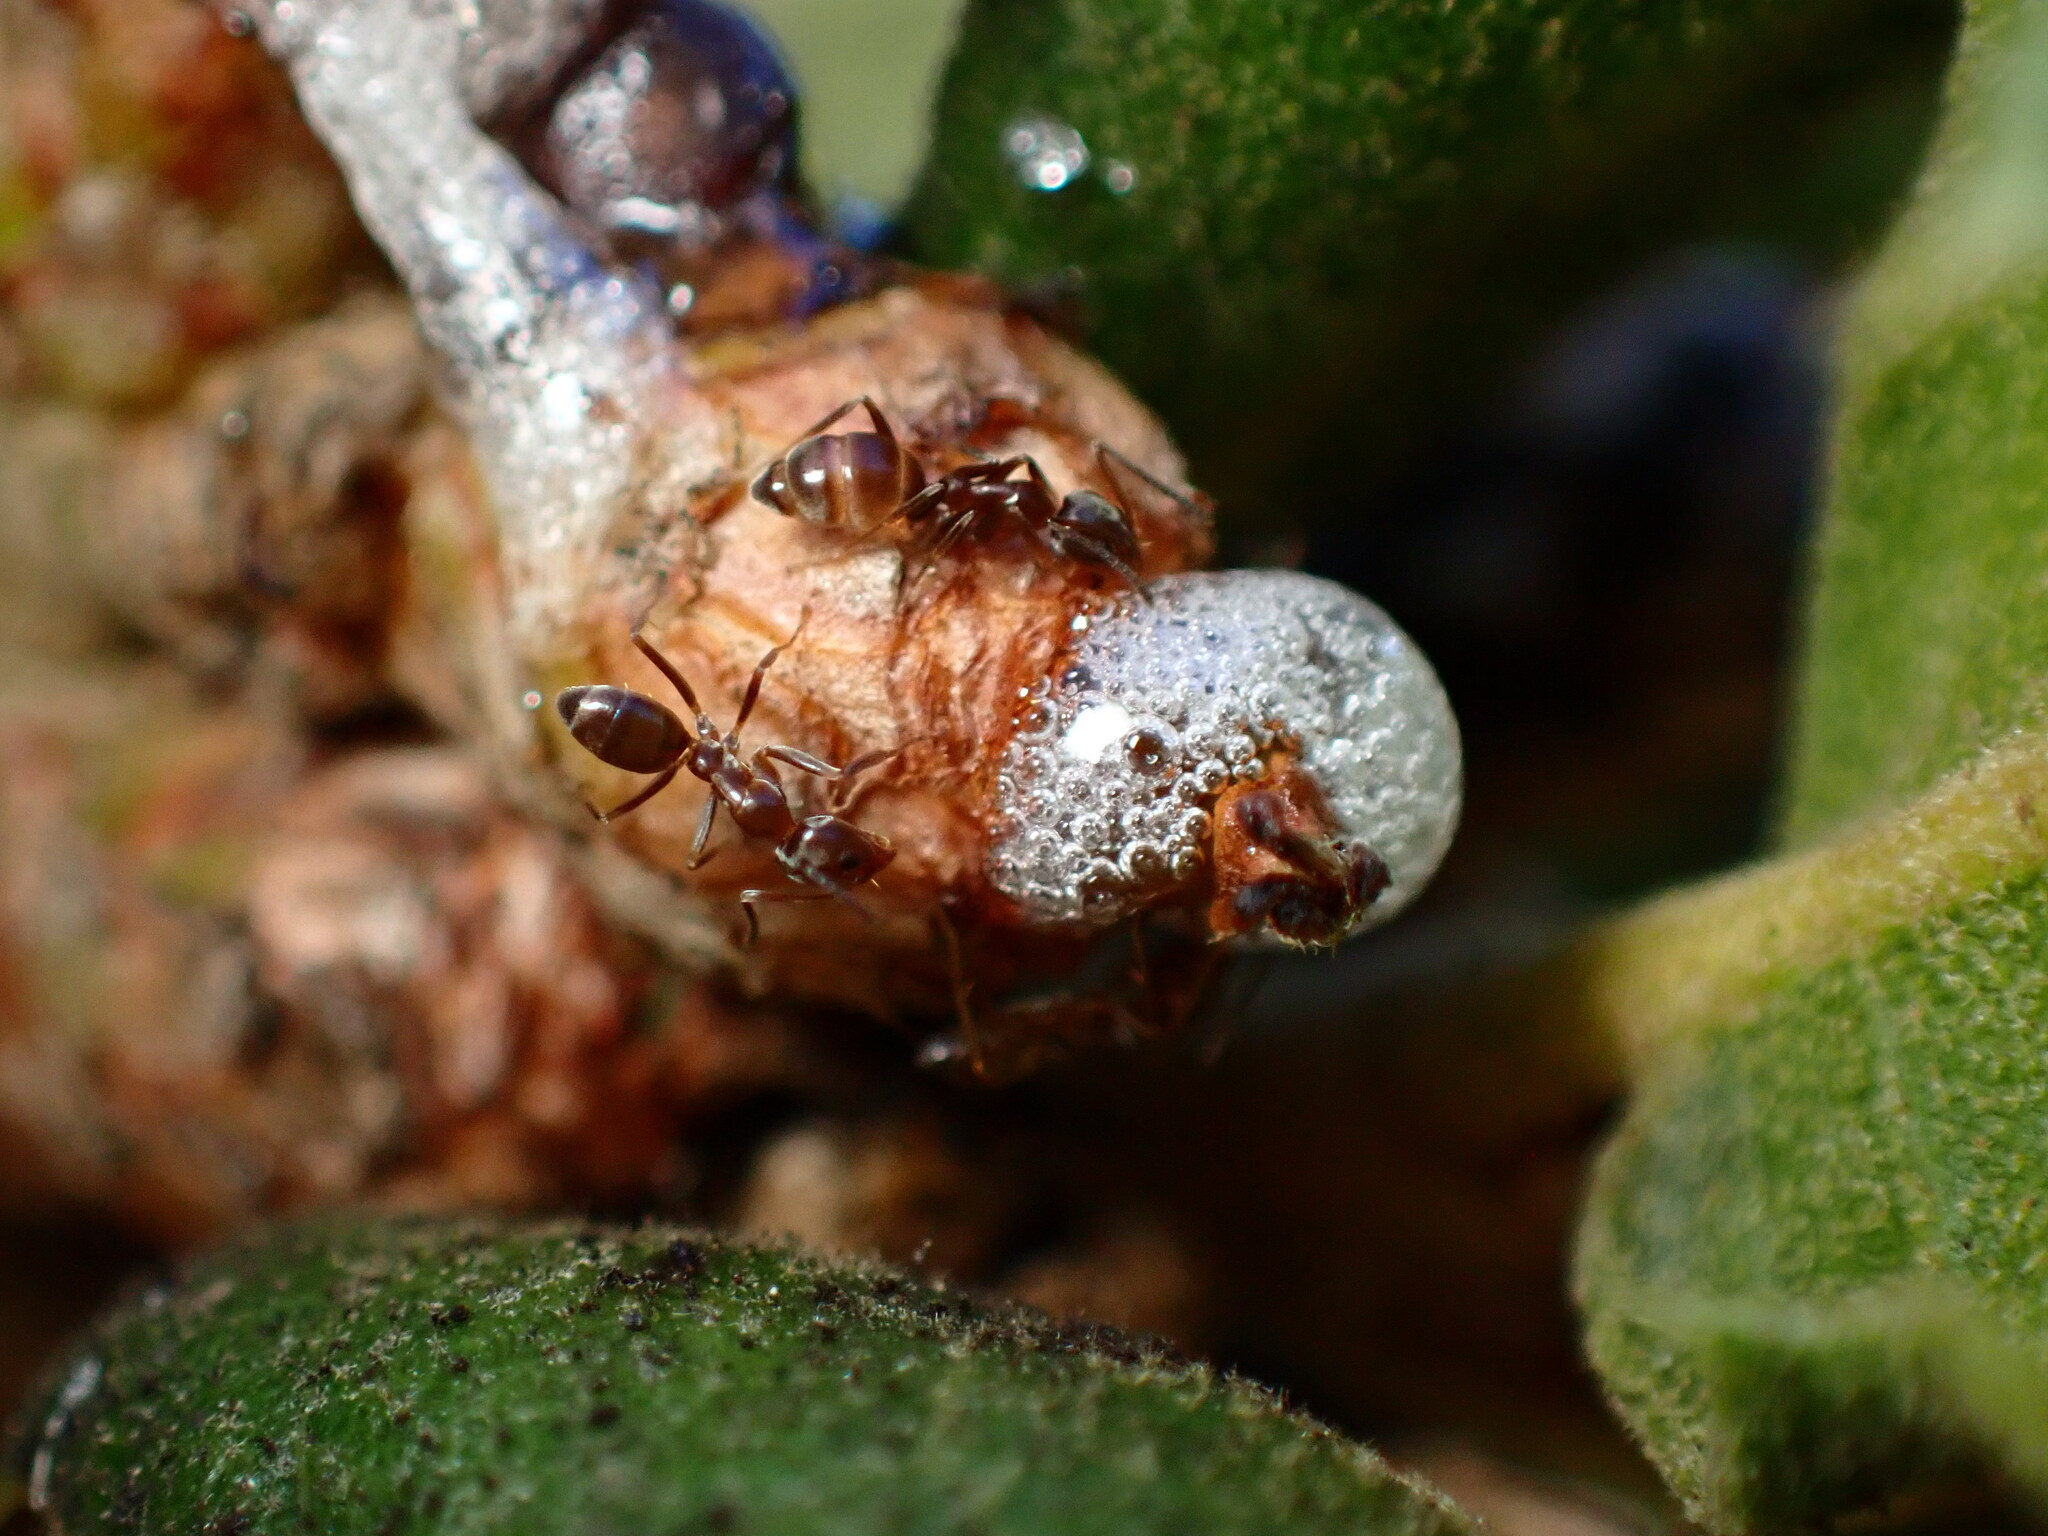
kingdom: Bacteria
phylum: Proteobacteria
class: Gammaproteobacteria
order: Enterobacterales
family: Enterobacteriaceae
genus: Lonsdalea
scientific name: Lonsdalea quercina
